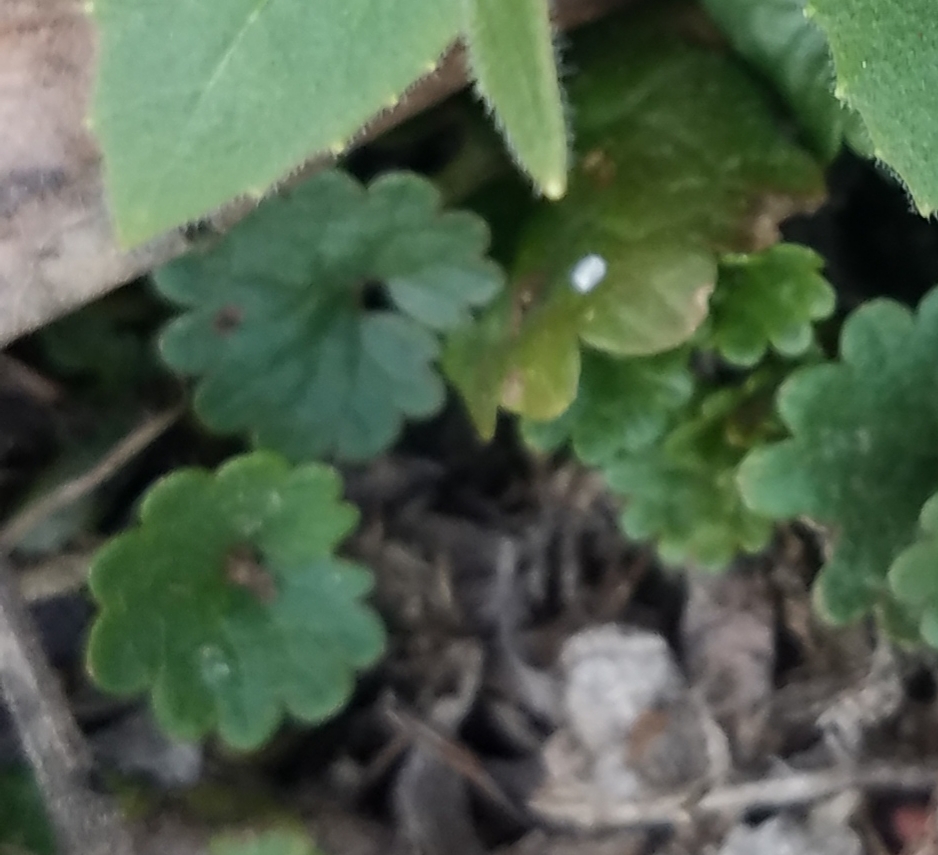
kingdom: Plantae
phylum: Tracheophyta
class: Magnoliopsida
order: Lamiales
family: Lamiaceae
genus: Glechoma
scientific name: Glechoma hederacea
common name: Ground ivy
